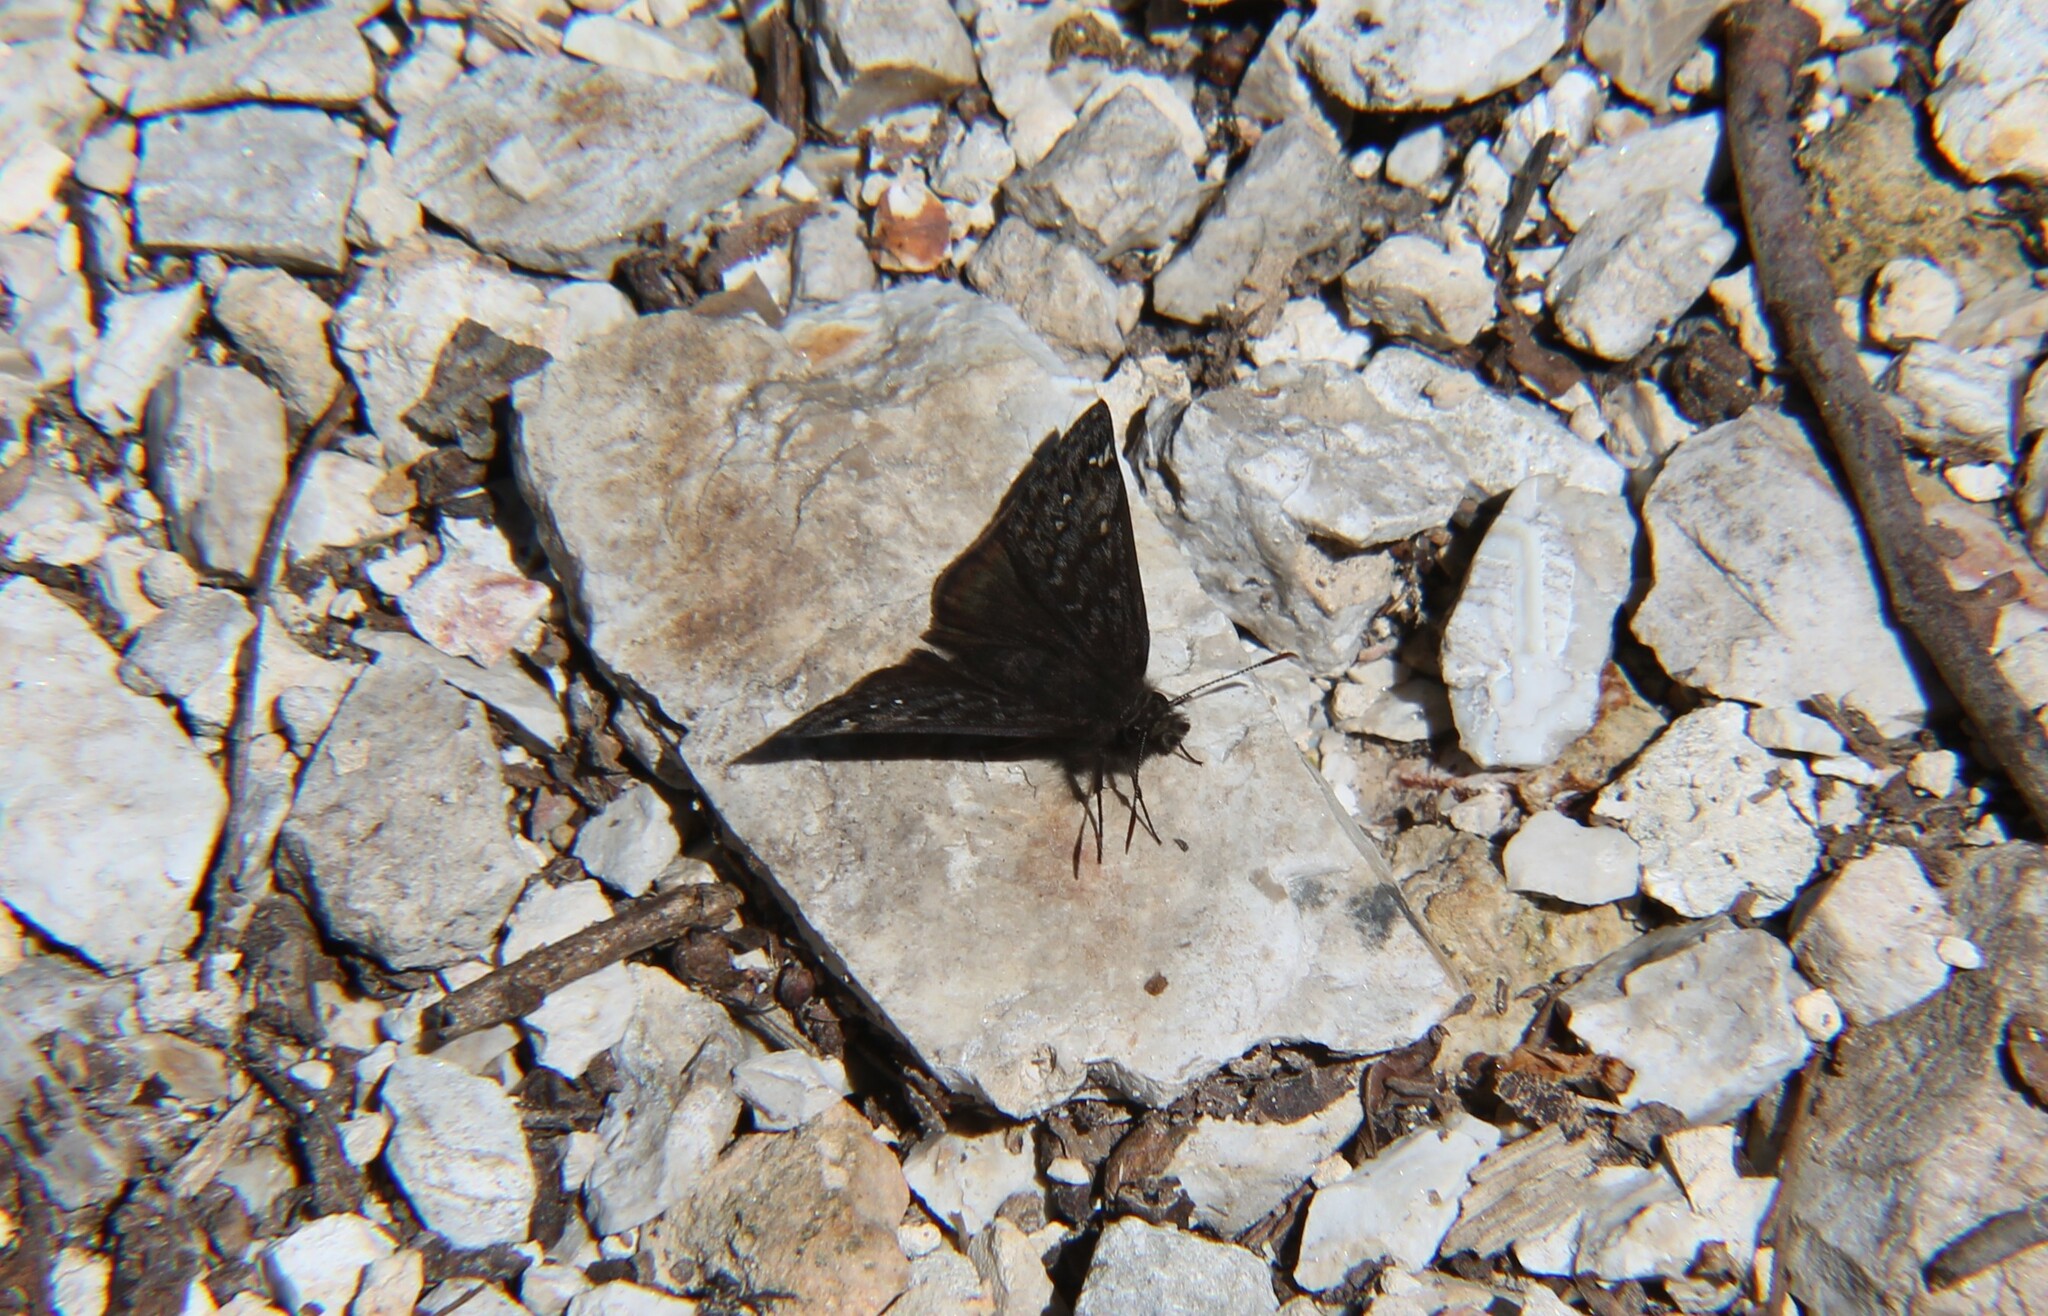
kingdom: Animalia
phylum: Arthropoda
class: Insecta
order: Lepidoptera
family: Hesperiidae
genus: Erynnis
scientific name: Erynnis juvenalis
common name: Juvenal's duskywing
